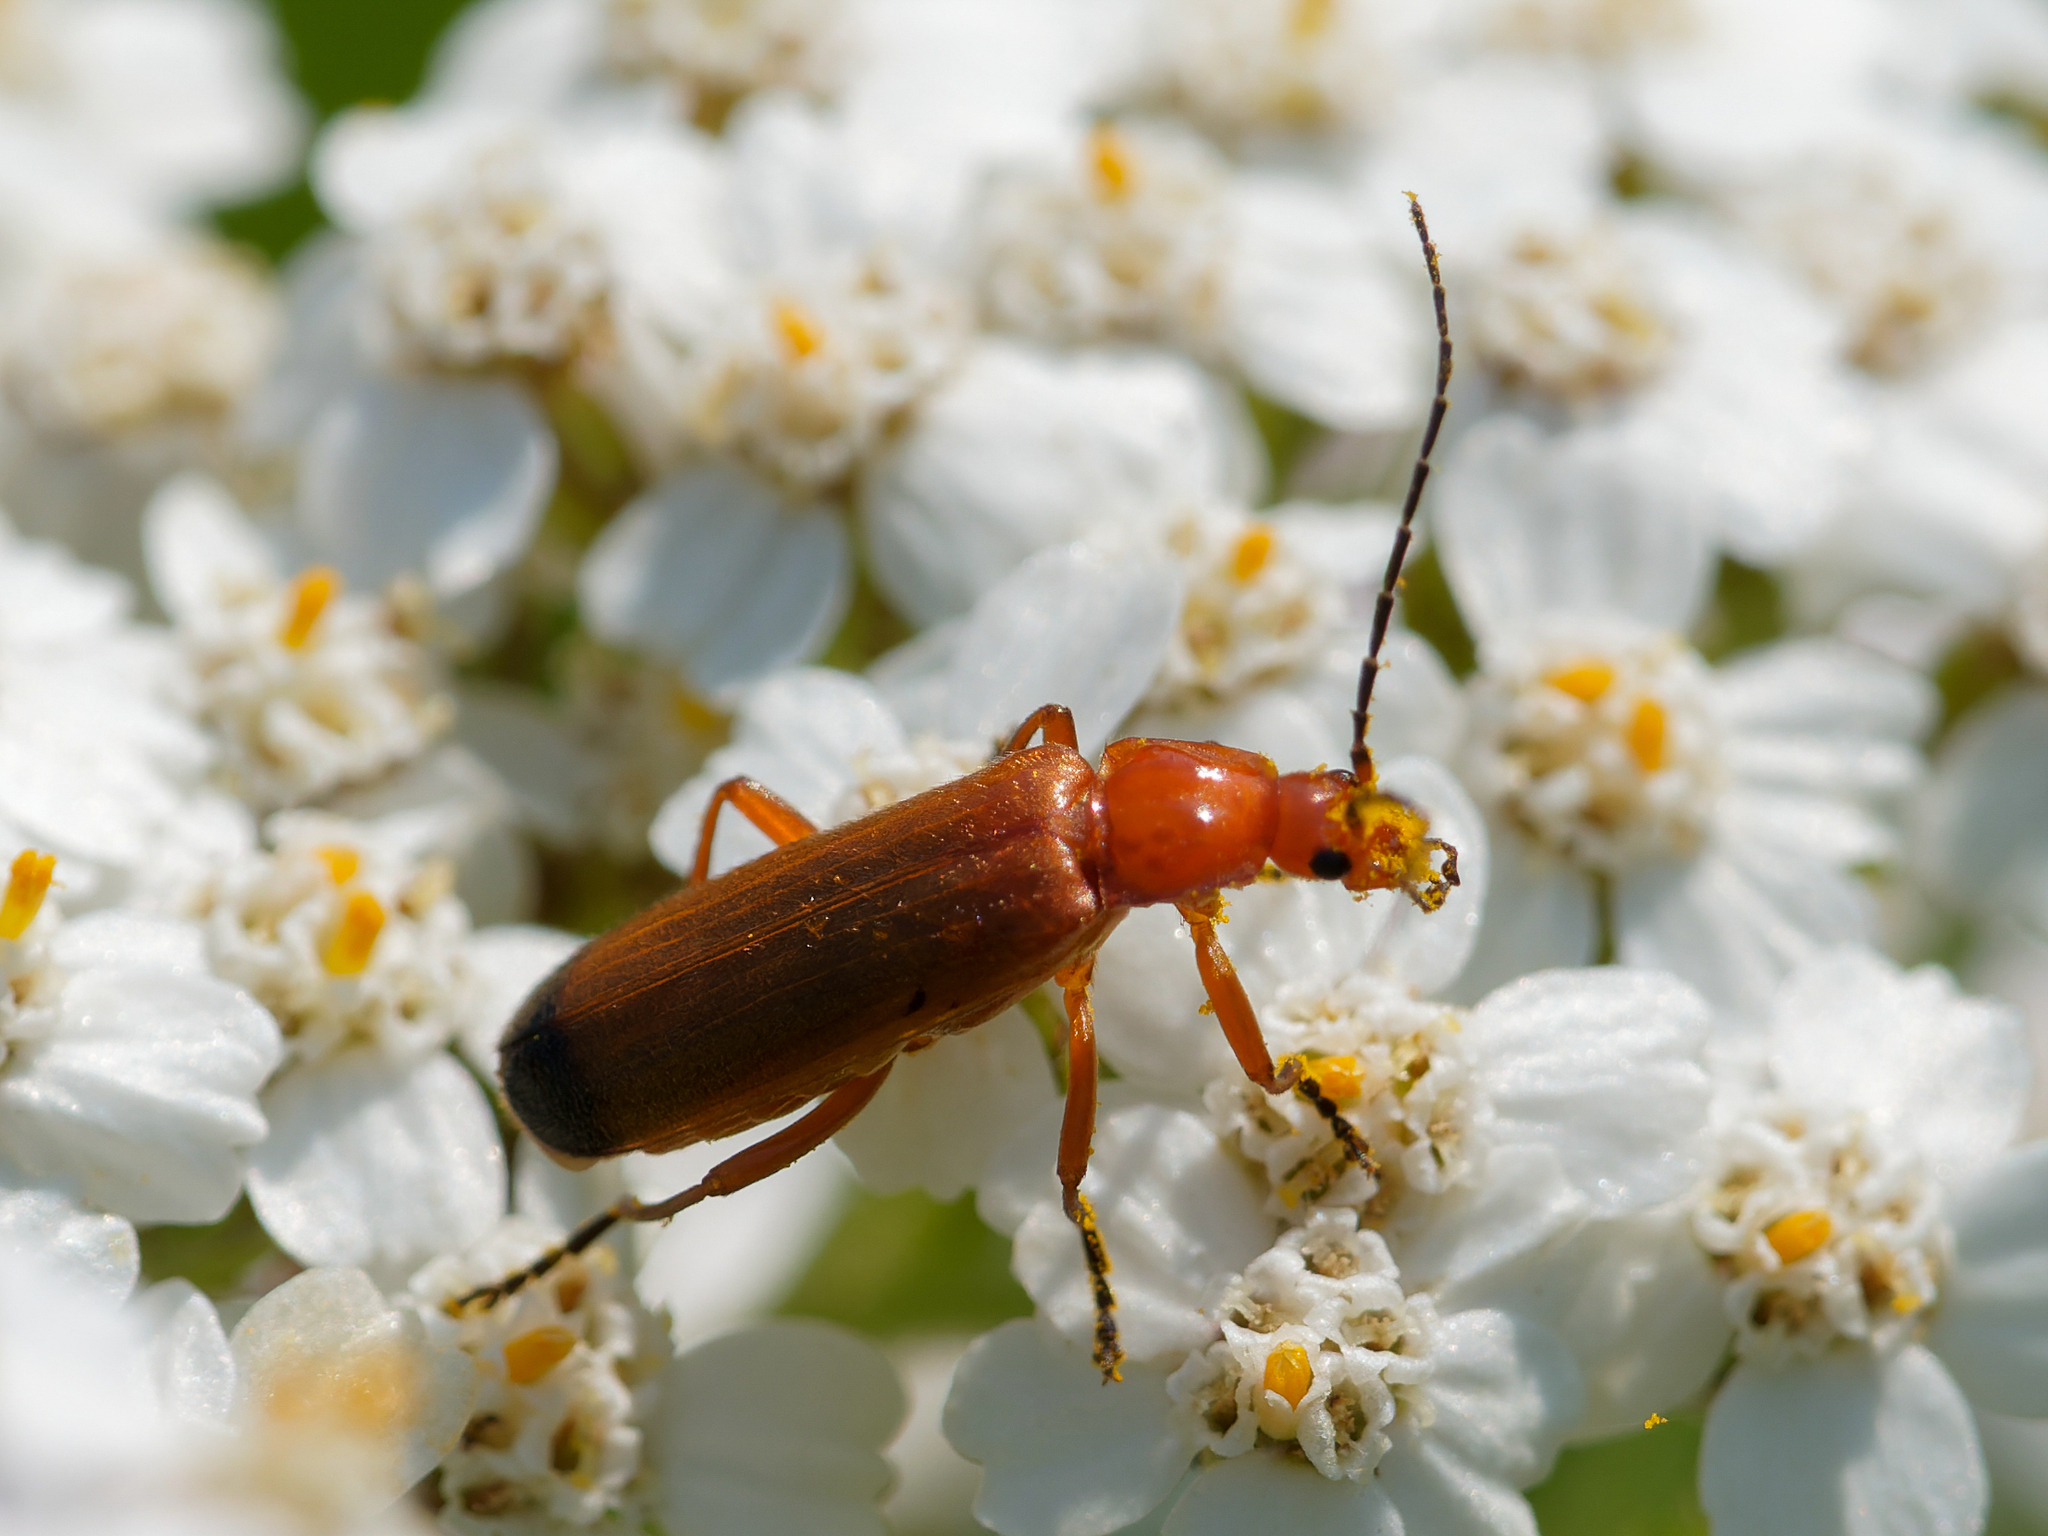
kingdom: Animalia
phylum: Arthropoda
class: Insecta
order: Coleoptera
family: Cantharidae
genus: Rhagonycha
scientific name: Rhagonycha fulva
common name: Common red soldier beetle
